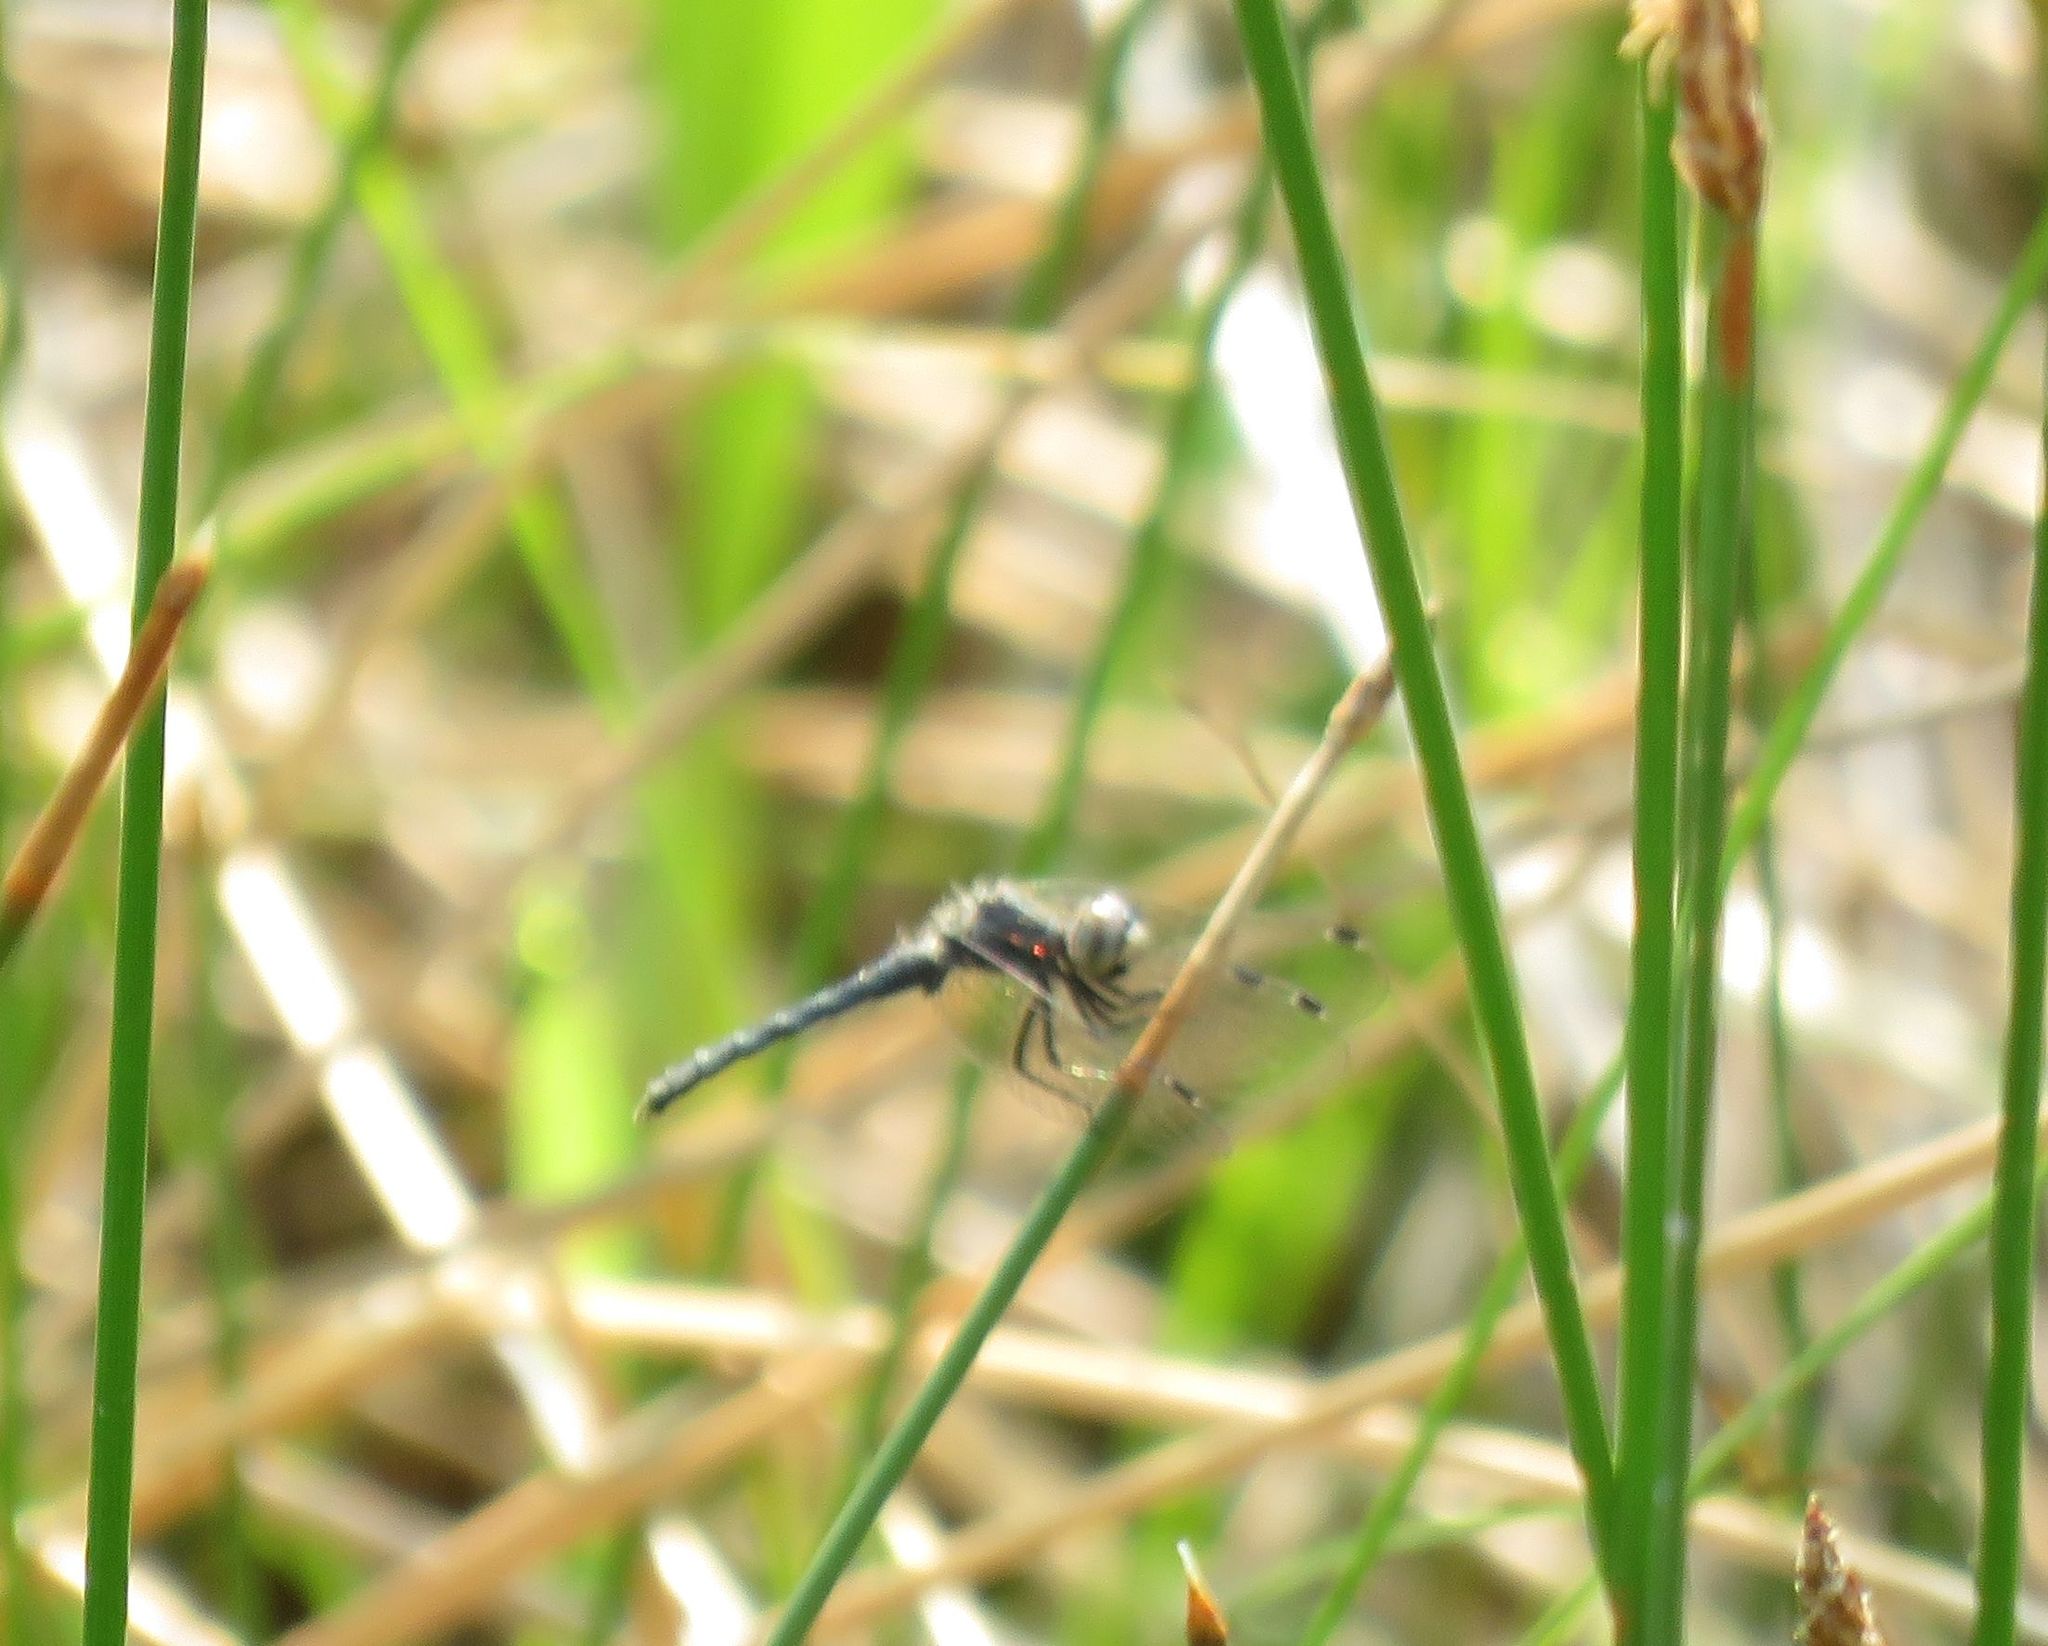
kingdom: Animalia
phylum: Arthropoda
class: Insecta
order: Odonata
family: Libellulidae
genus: Nannothemis
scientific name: Nannothemis bella
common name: Elfin skimmer
